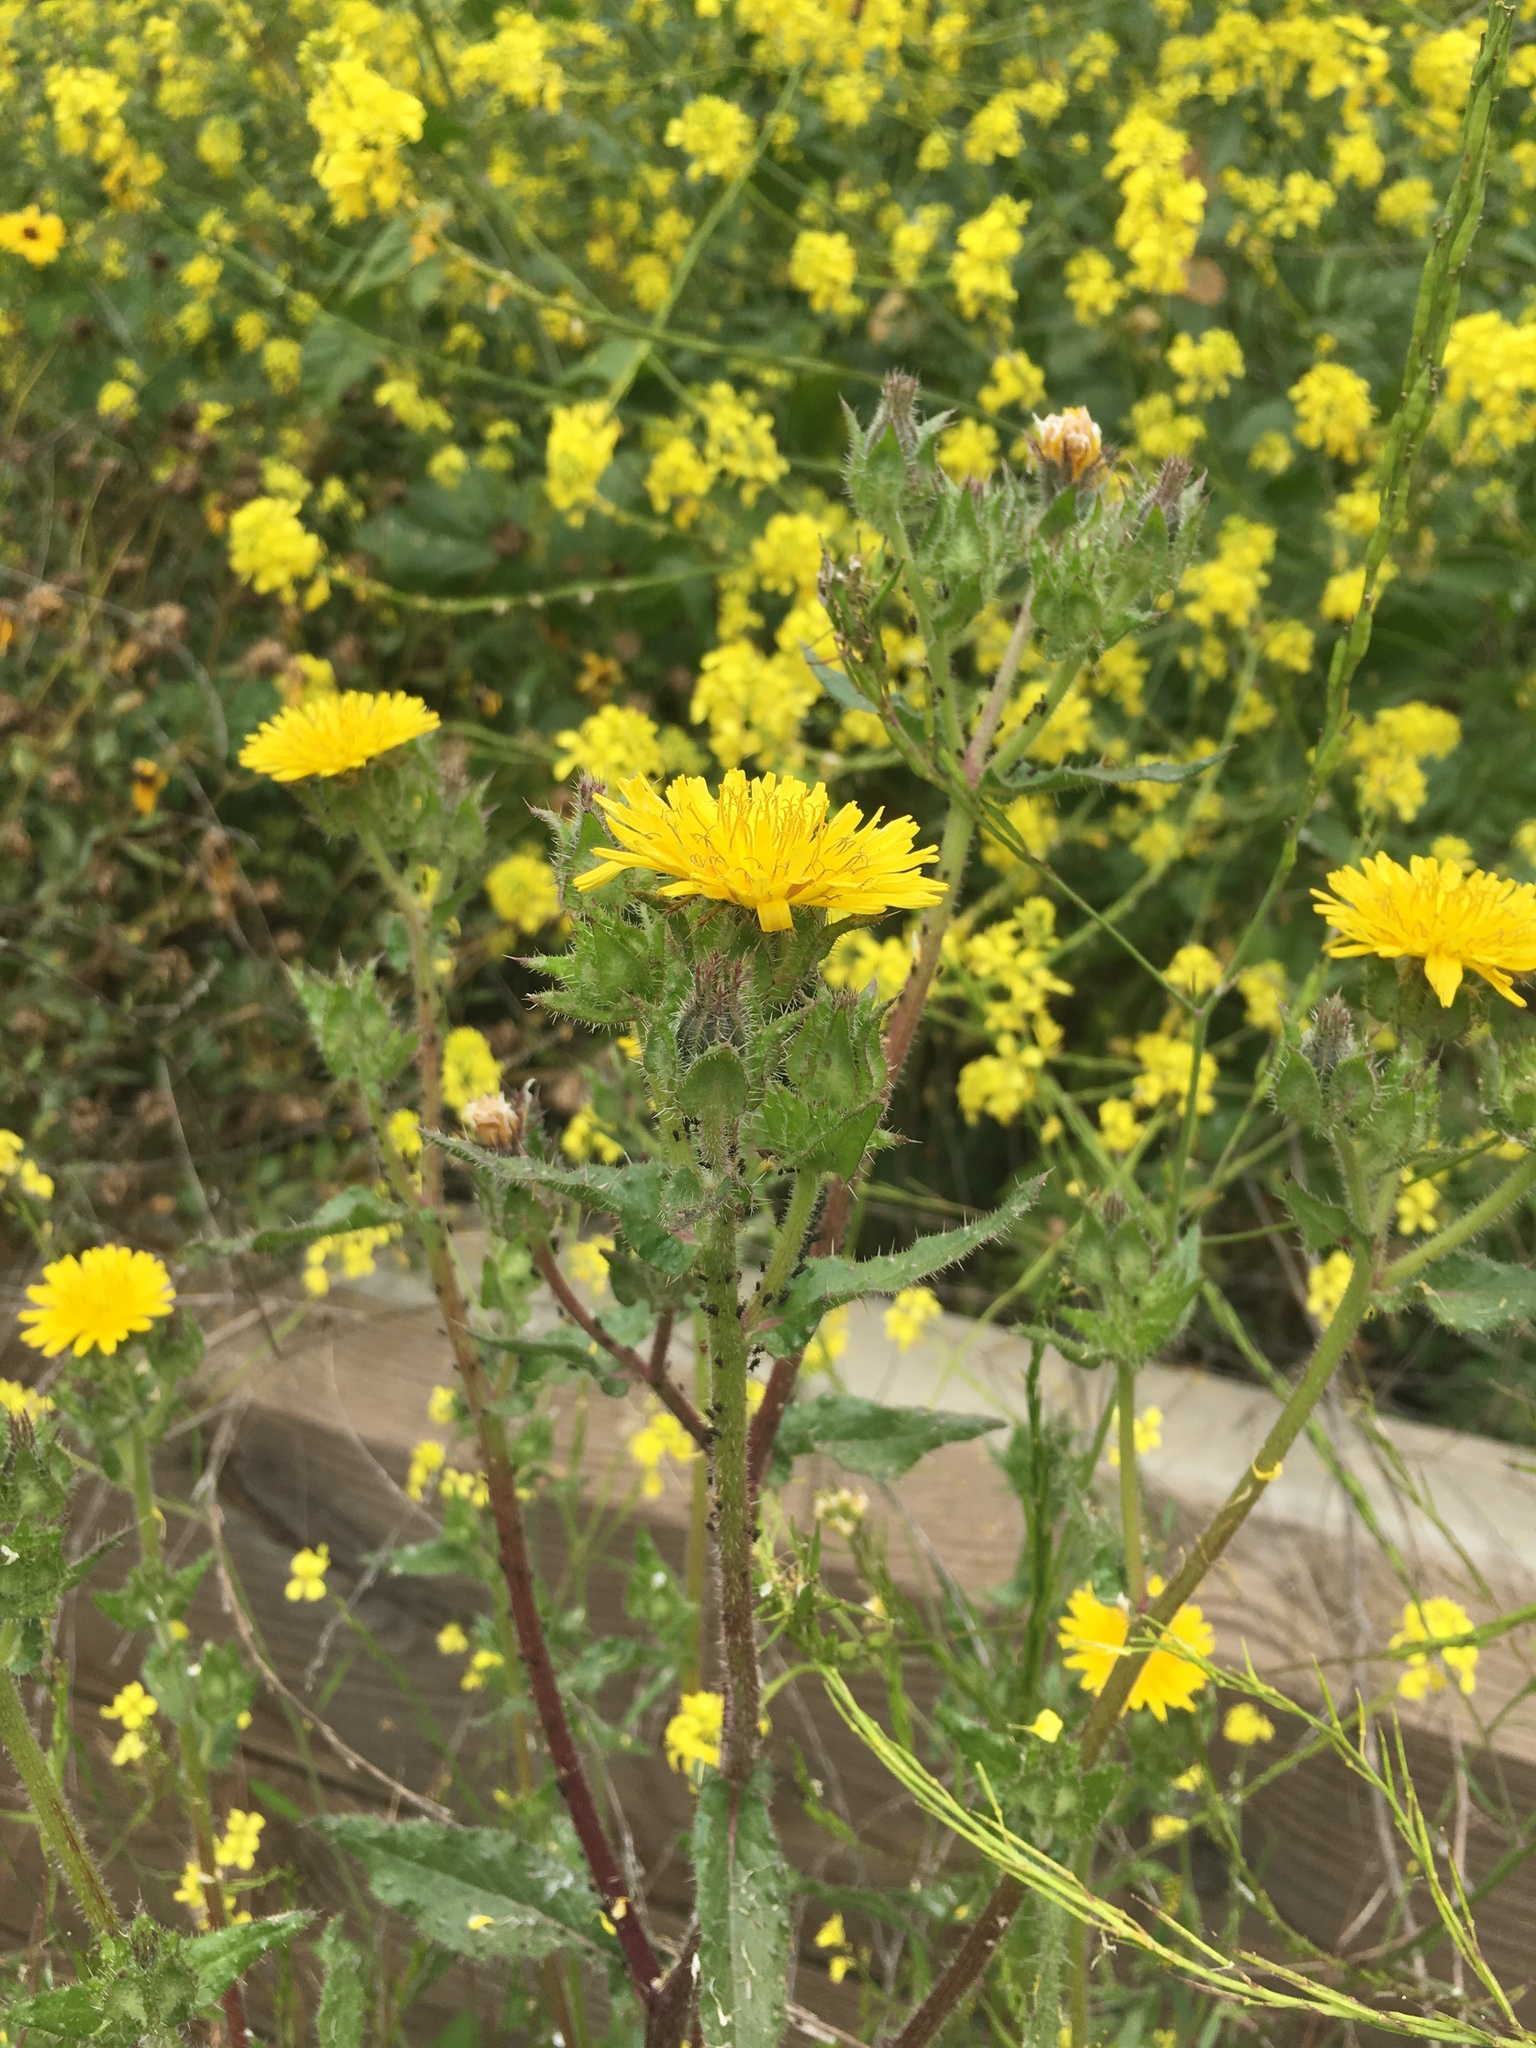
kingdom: Plantae
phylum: Tracheophyta
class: Magnoliopsida
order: Asterales
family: Asteraceae
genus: Helminthotheca
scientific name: Helminthotheca echioides
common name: Ox-tongue
